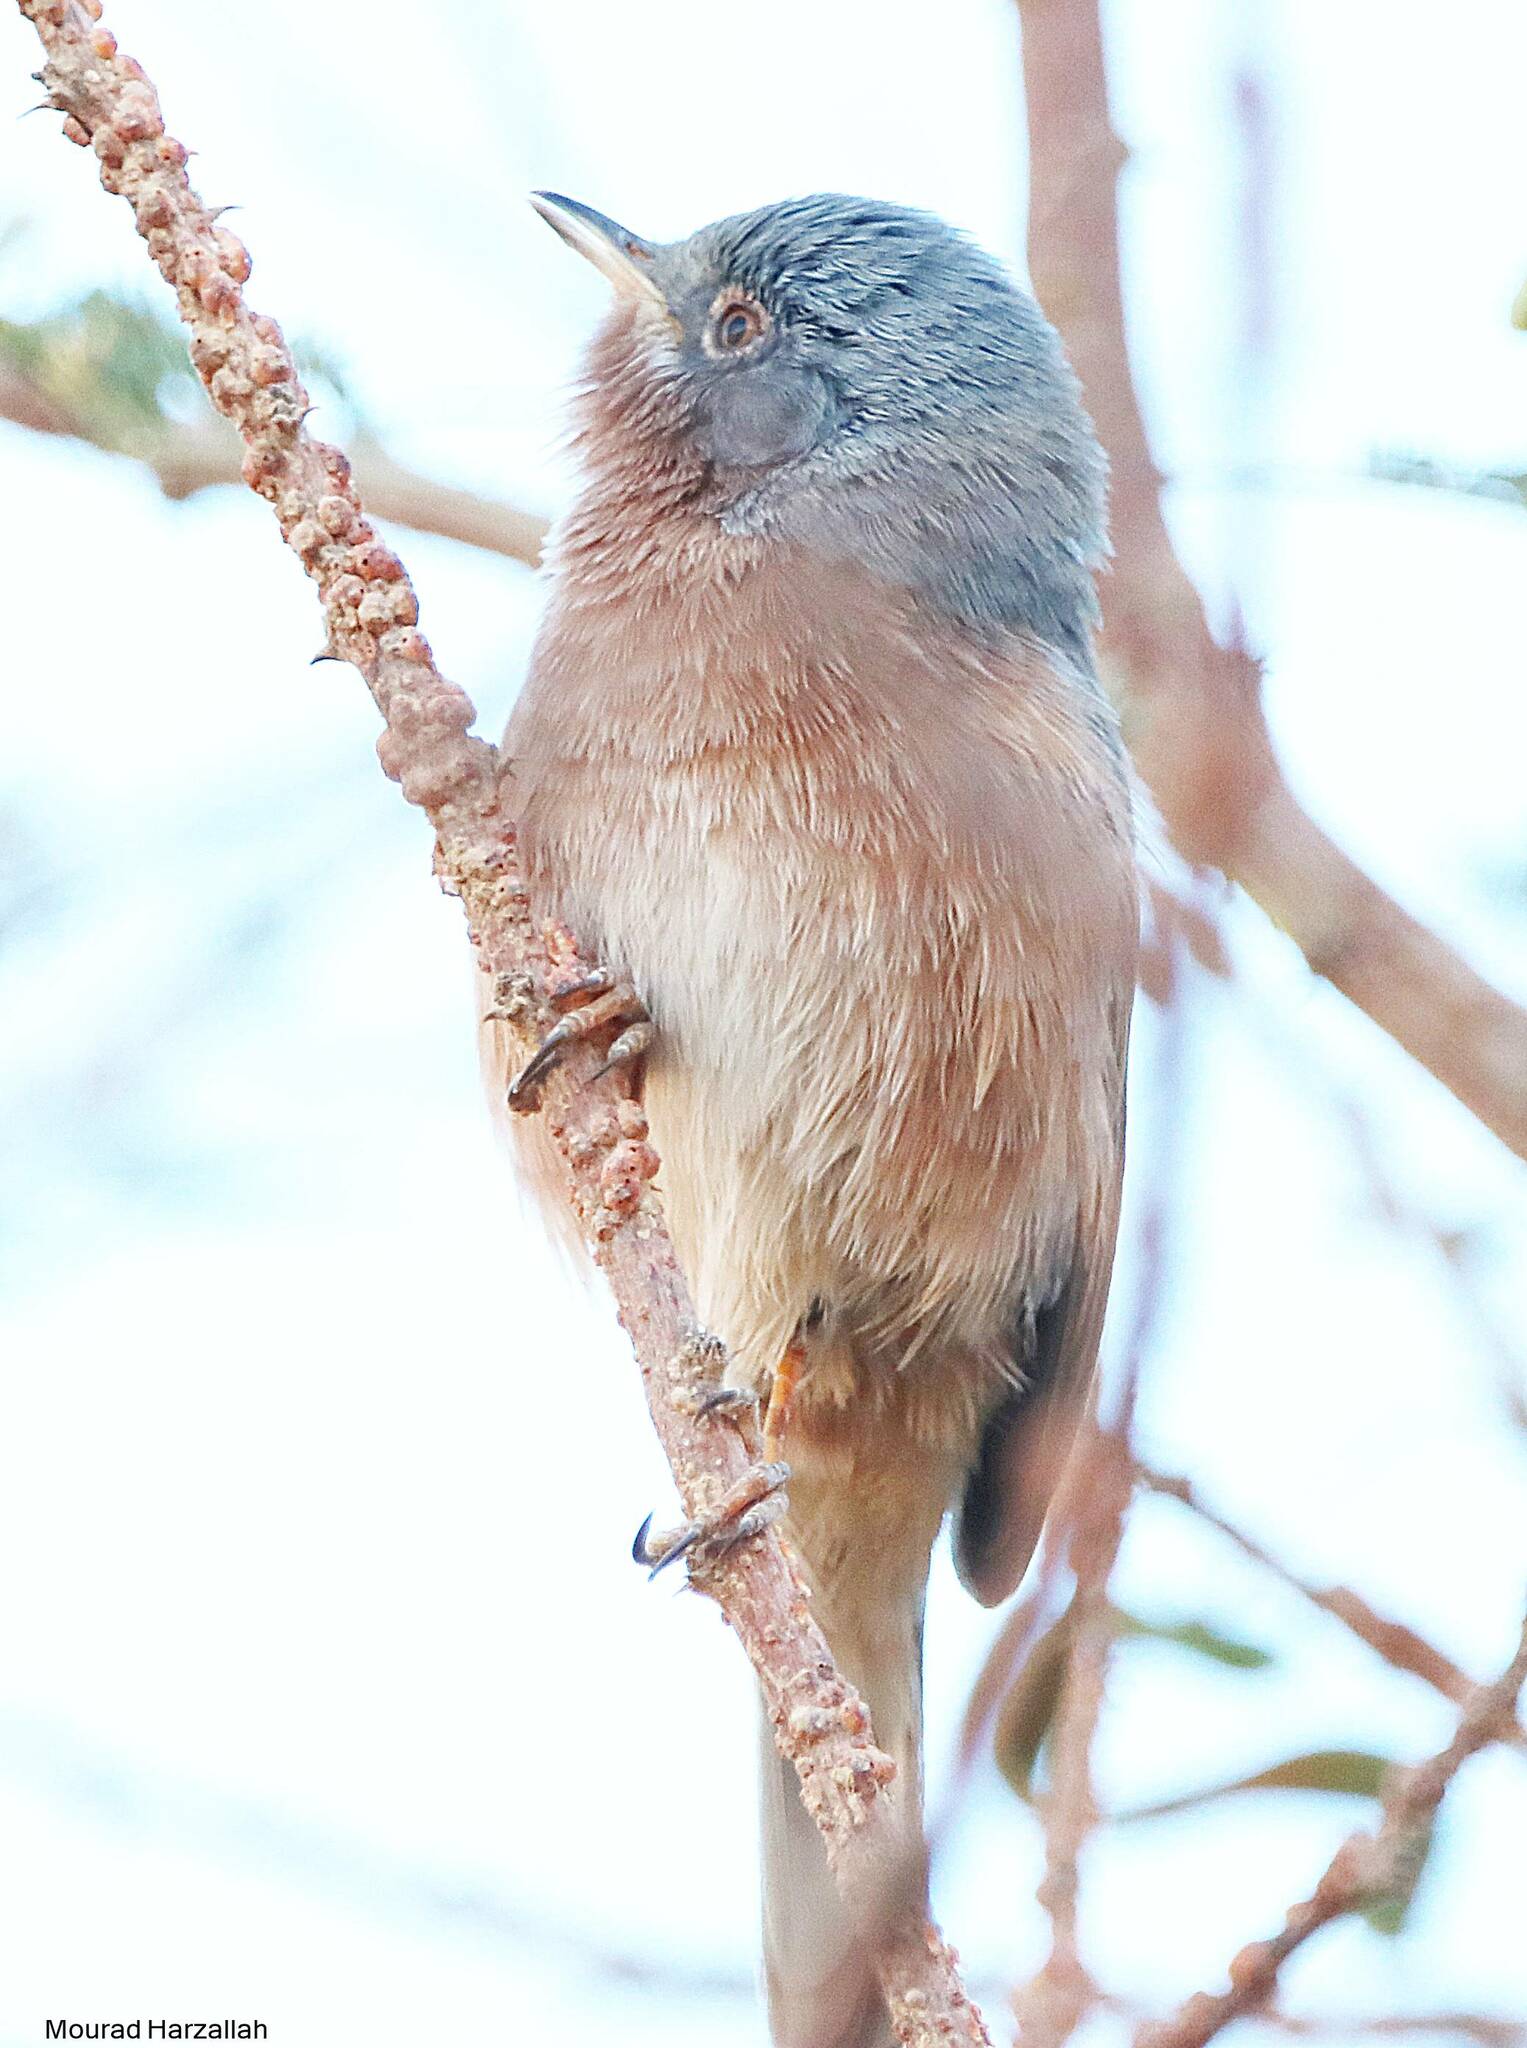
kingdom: Animalia
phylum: Chordata
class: Aves
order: Passeriformes
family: Sylviidae
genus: Sylvia
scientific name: Sylvia deserticola
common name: Tristram's warbler
